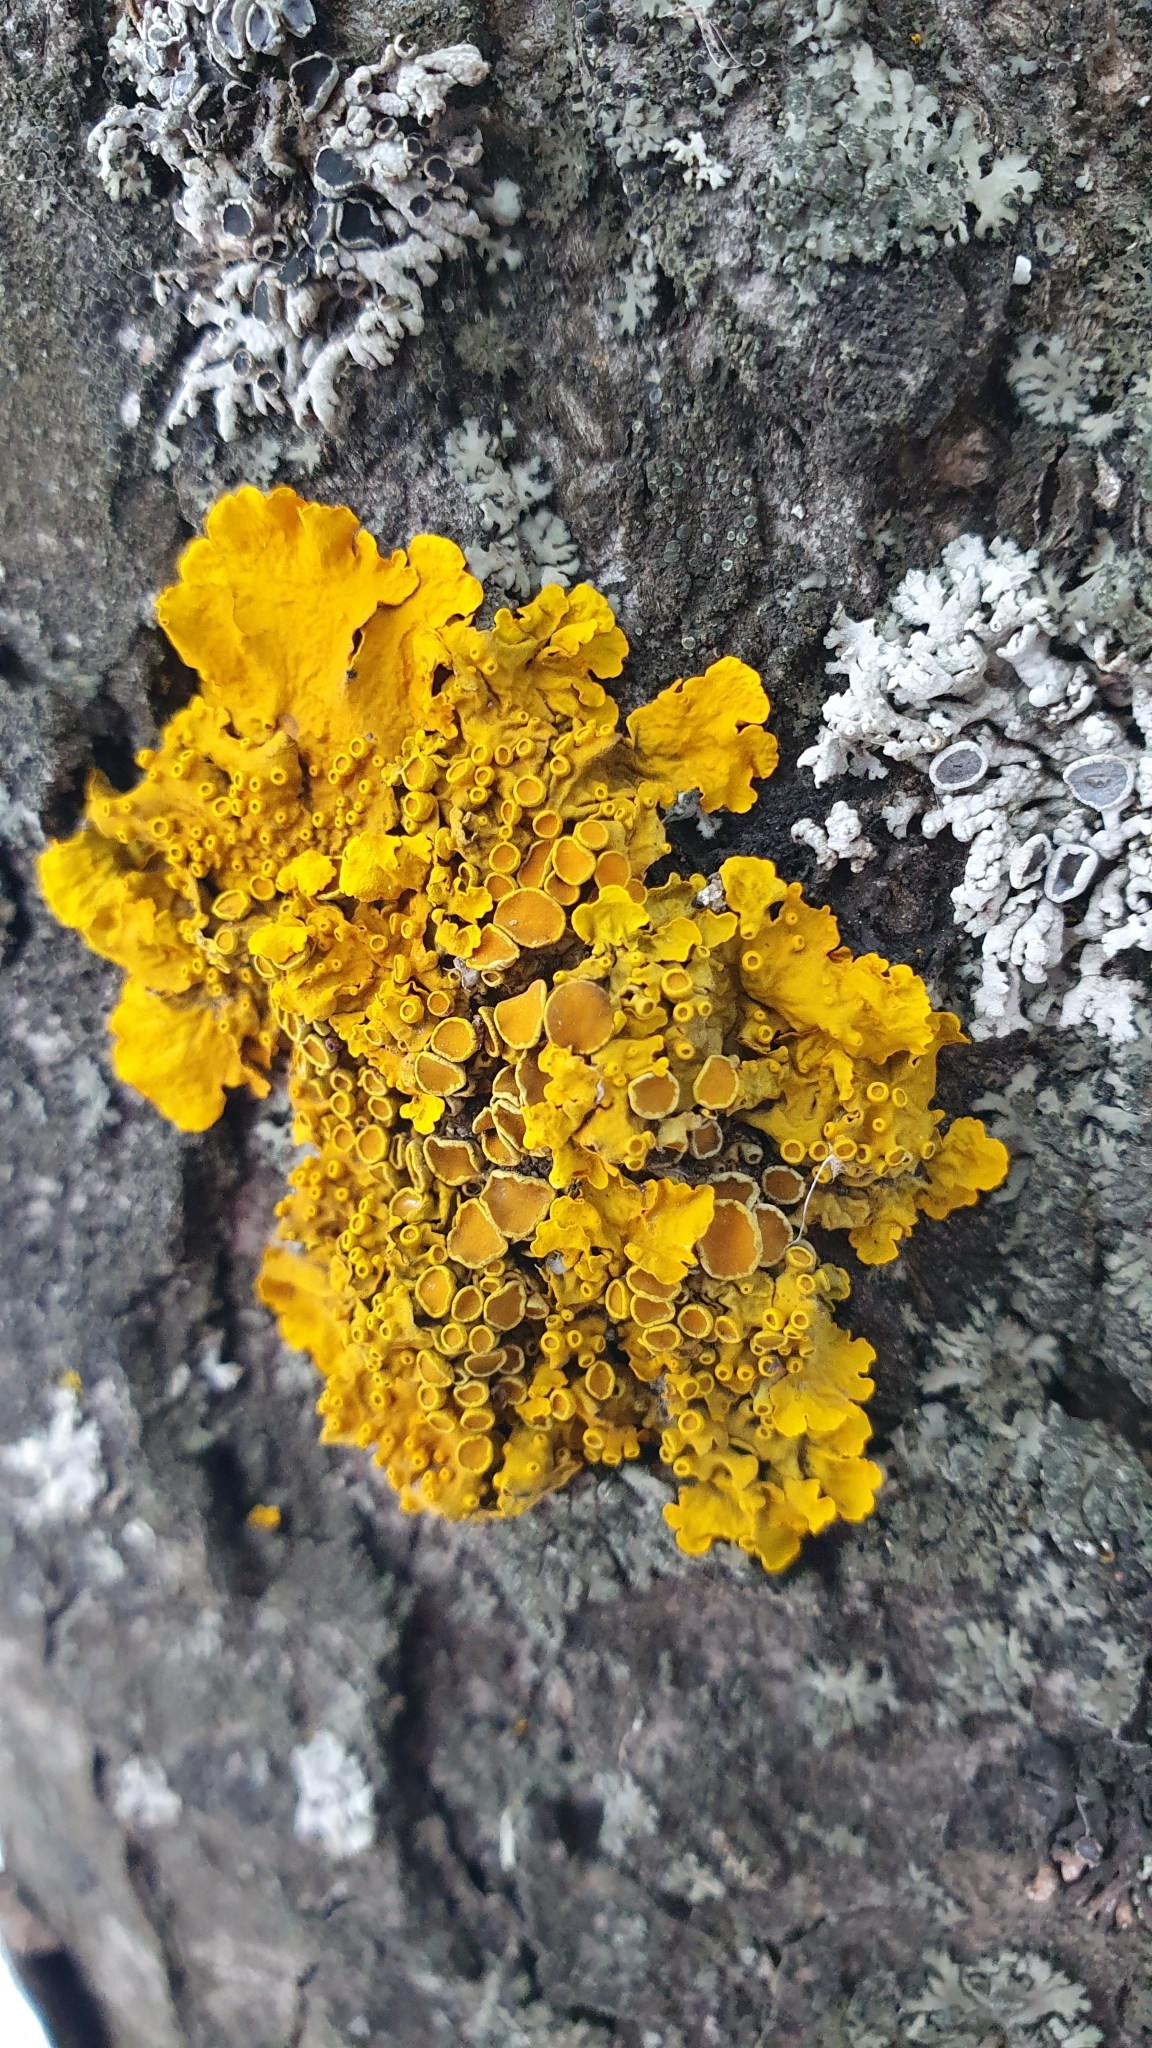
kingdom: Fungi
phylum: Ascomycota
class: Lecanoromycetes
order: Teloschistales
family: Teloschistaceae
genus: Xanthoria
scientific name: Xanthoria parietina
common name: Common orange lichen
